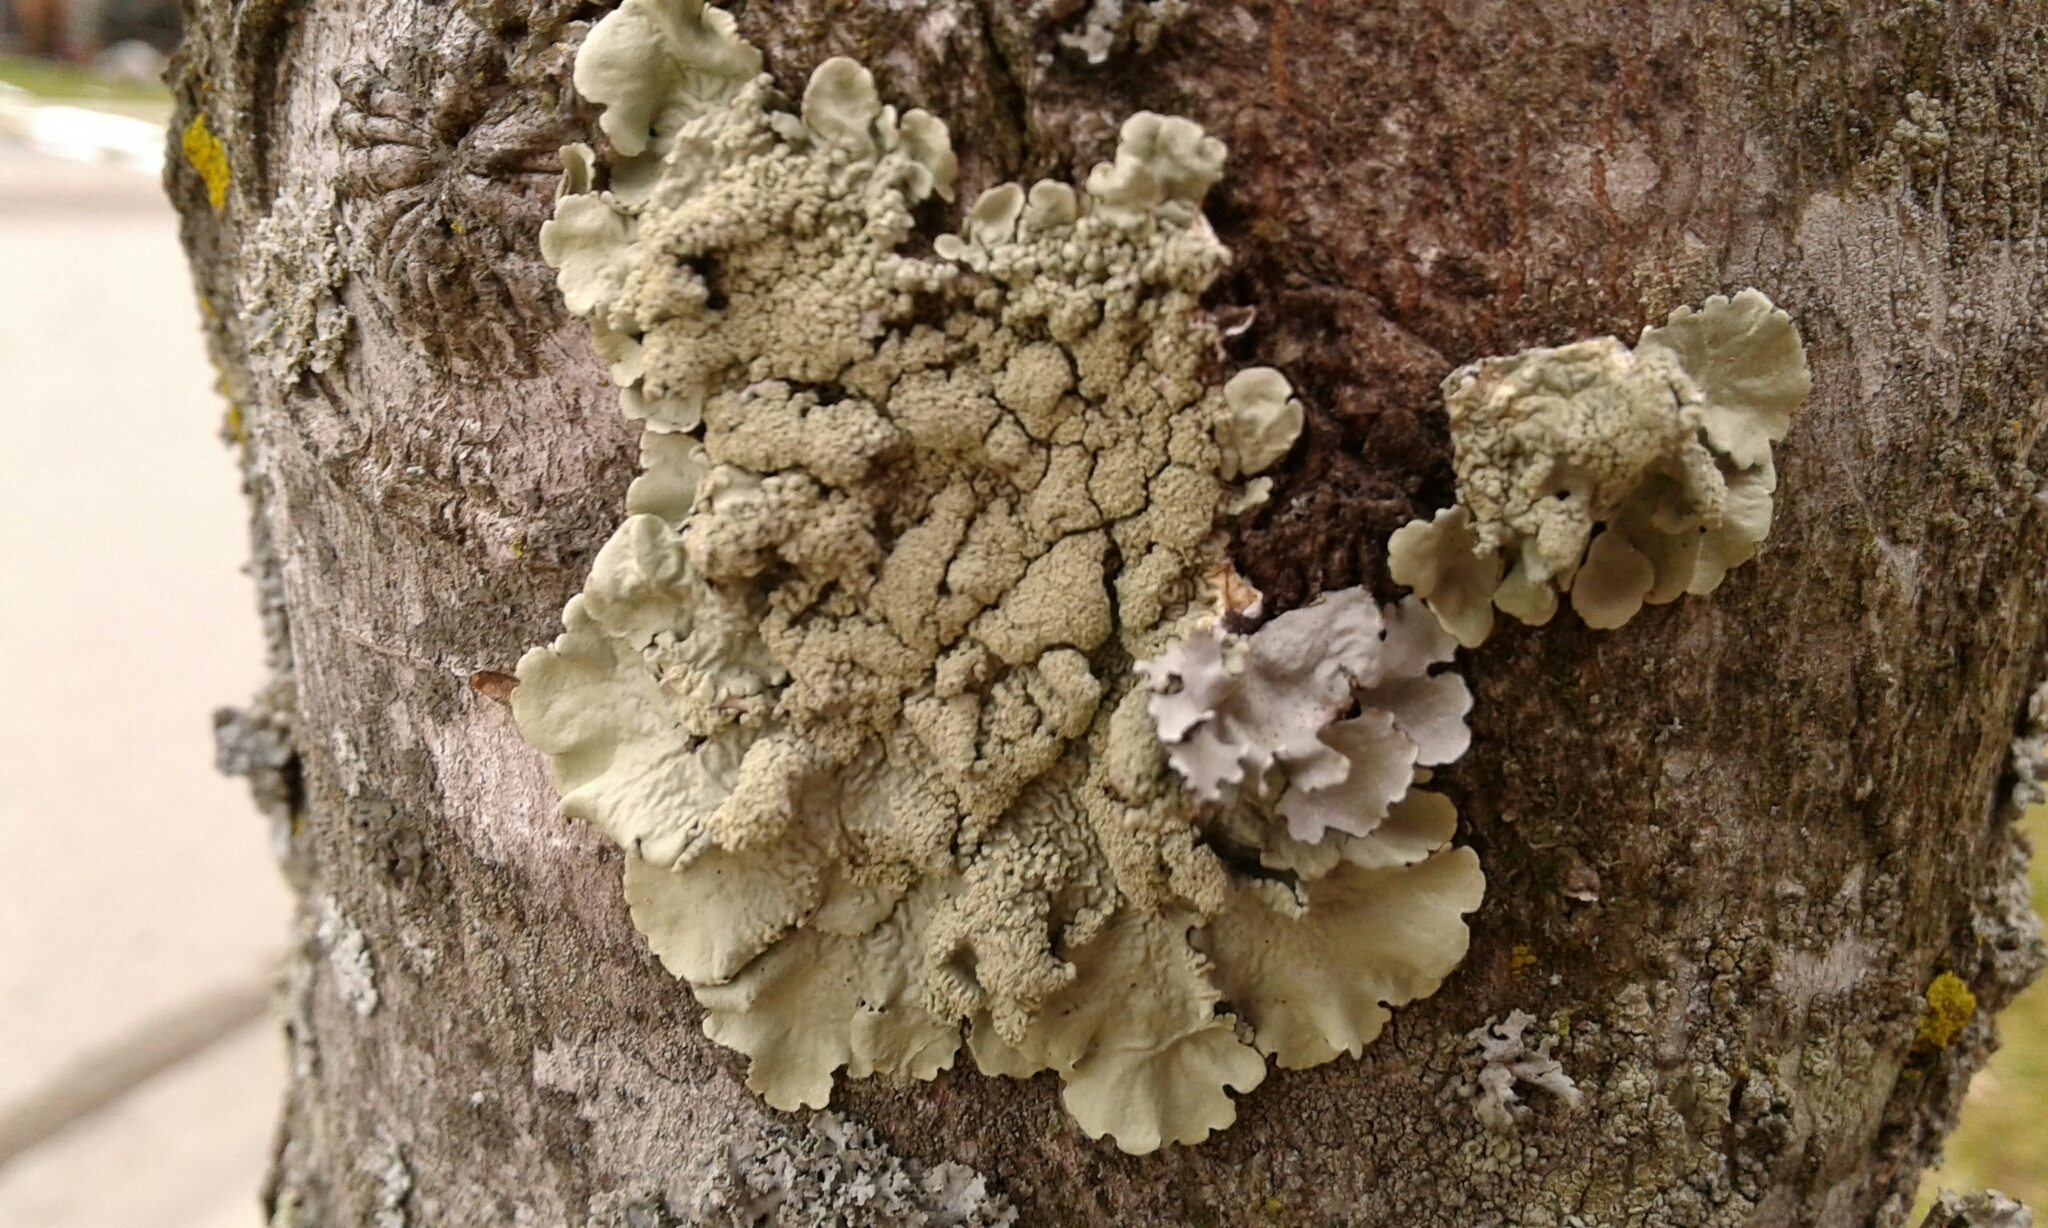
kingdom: Fungi
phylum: Ascomycota
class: Lecanoromycetes
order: Lecanorales
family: Parmeliaceae
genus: Flavoparmelia
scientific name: Flavoparmelia caperata
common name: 40-mile per hour lichen
